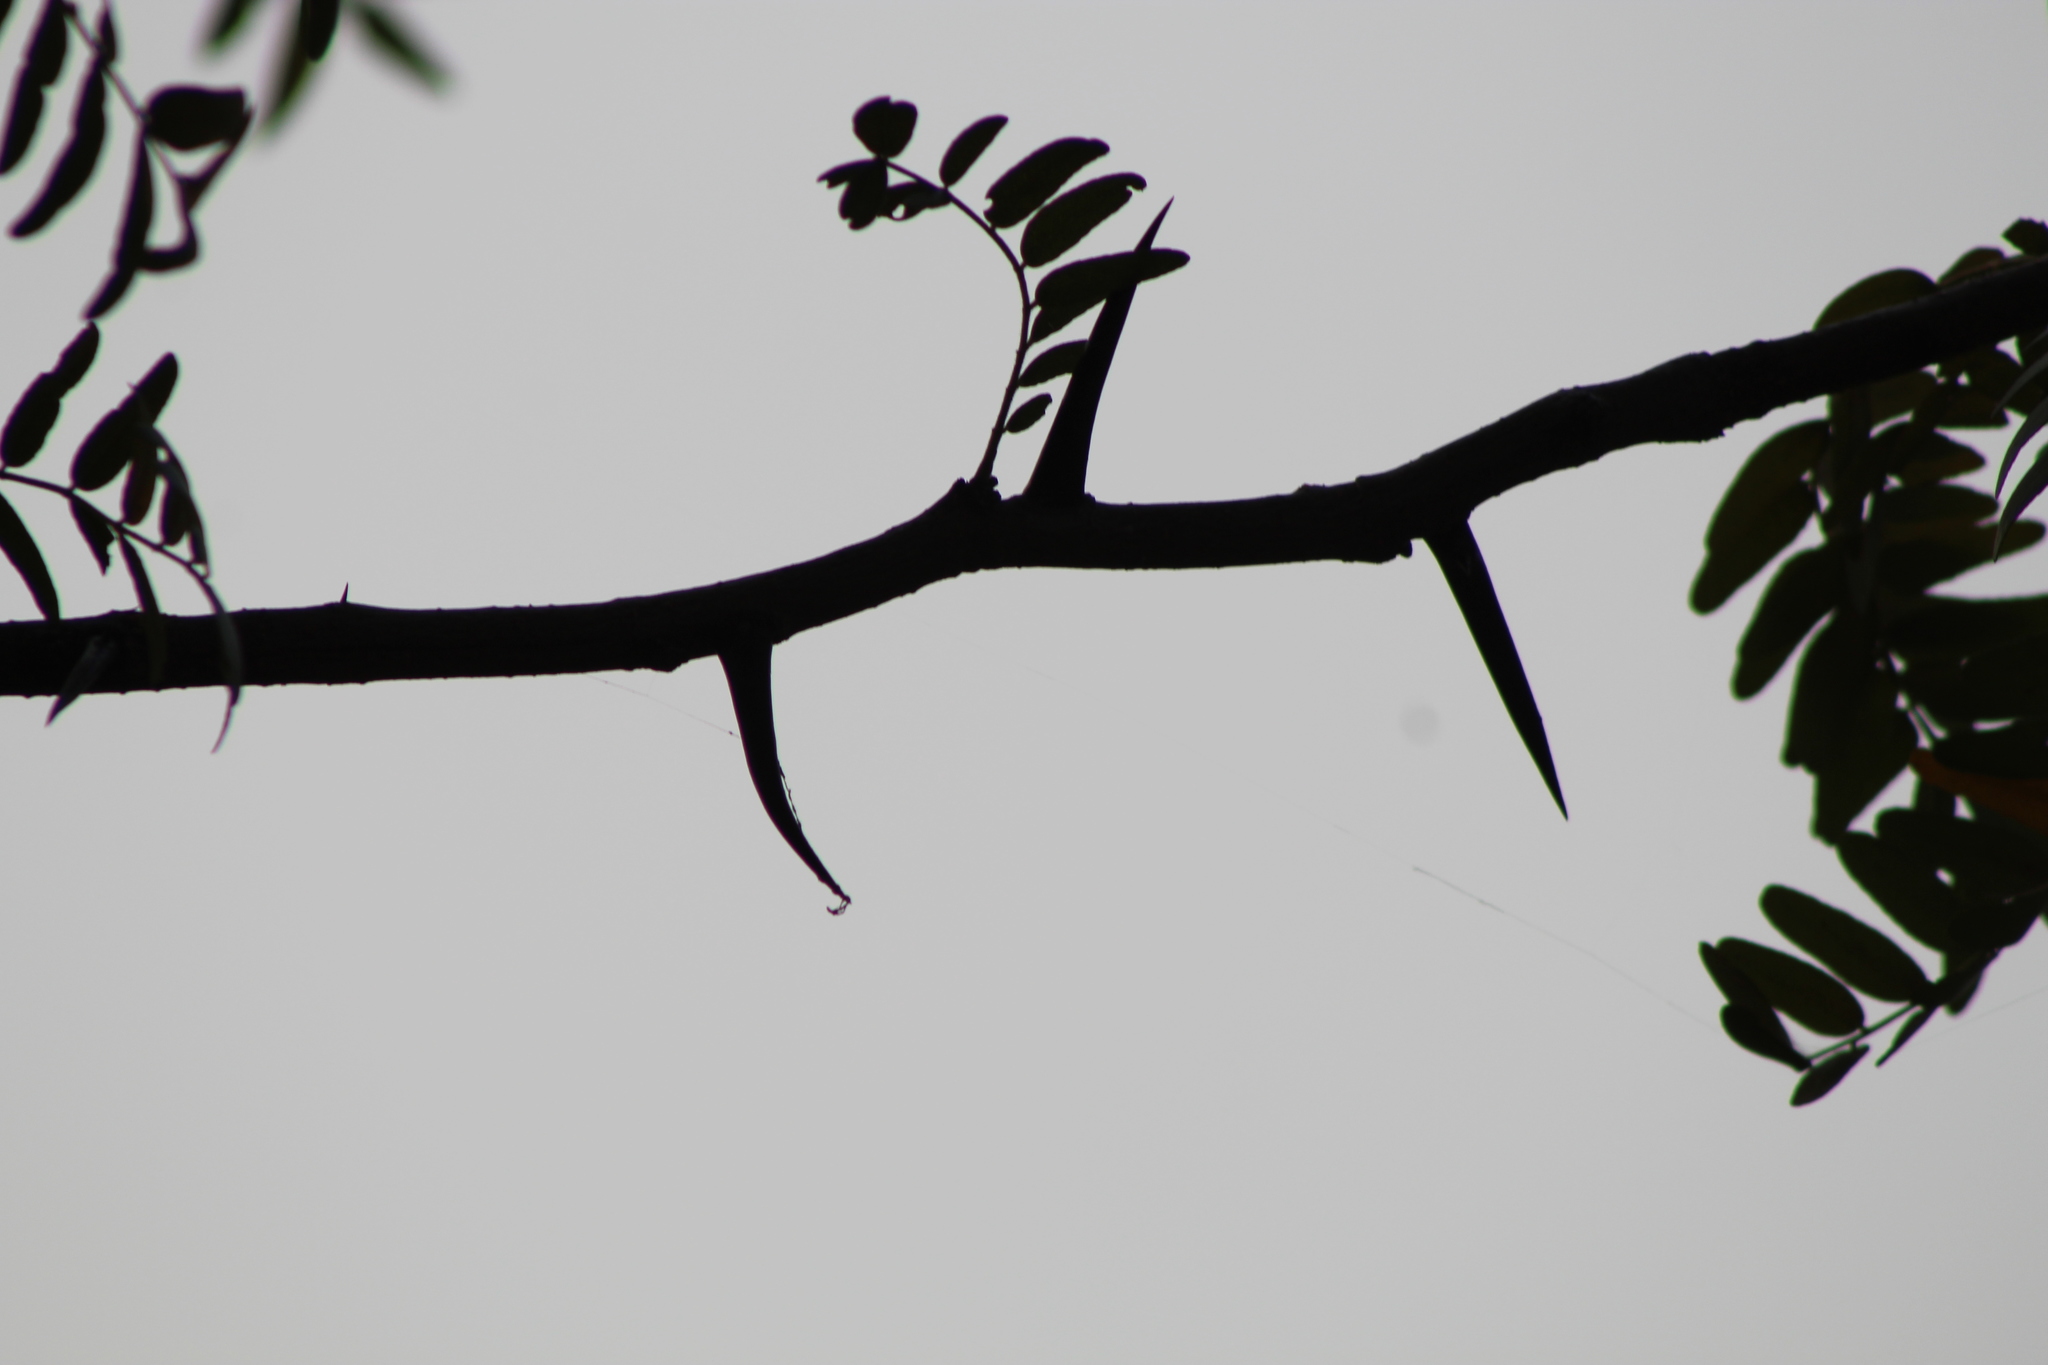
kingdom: Plantae
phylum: Tracheophyta
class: Magnoliopsida
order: Fabales
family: Fabaceae
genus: Gleditsia
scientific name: Gleditsia triacanthos
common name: Common honeylocust
